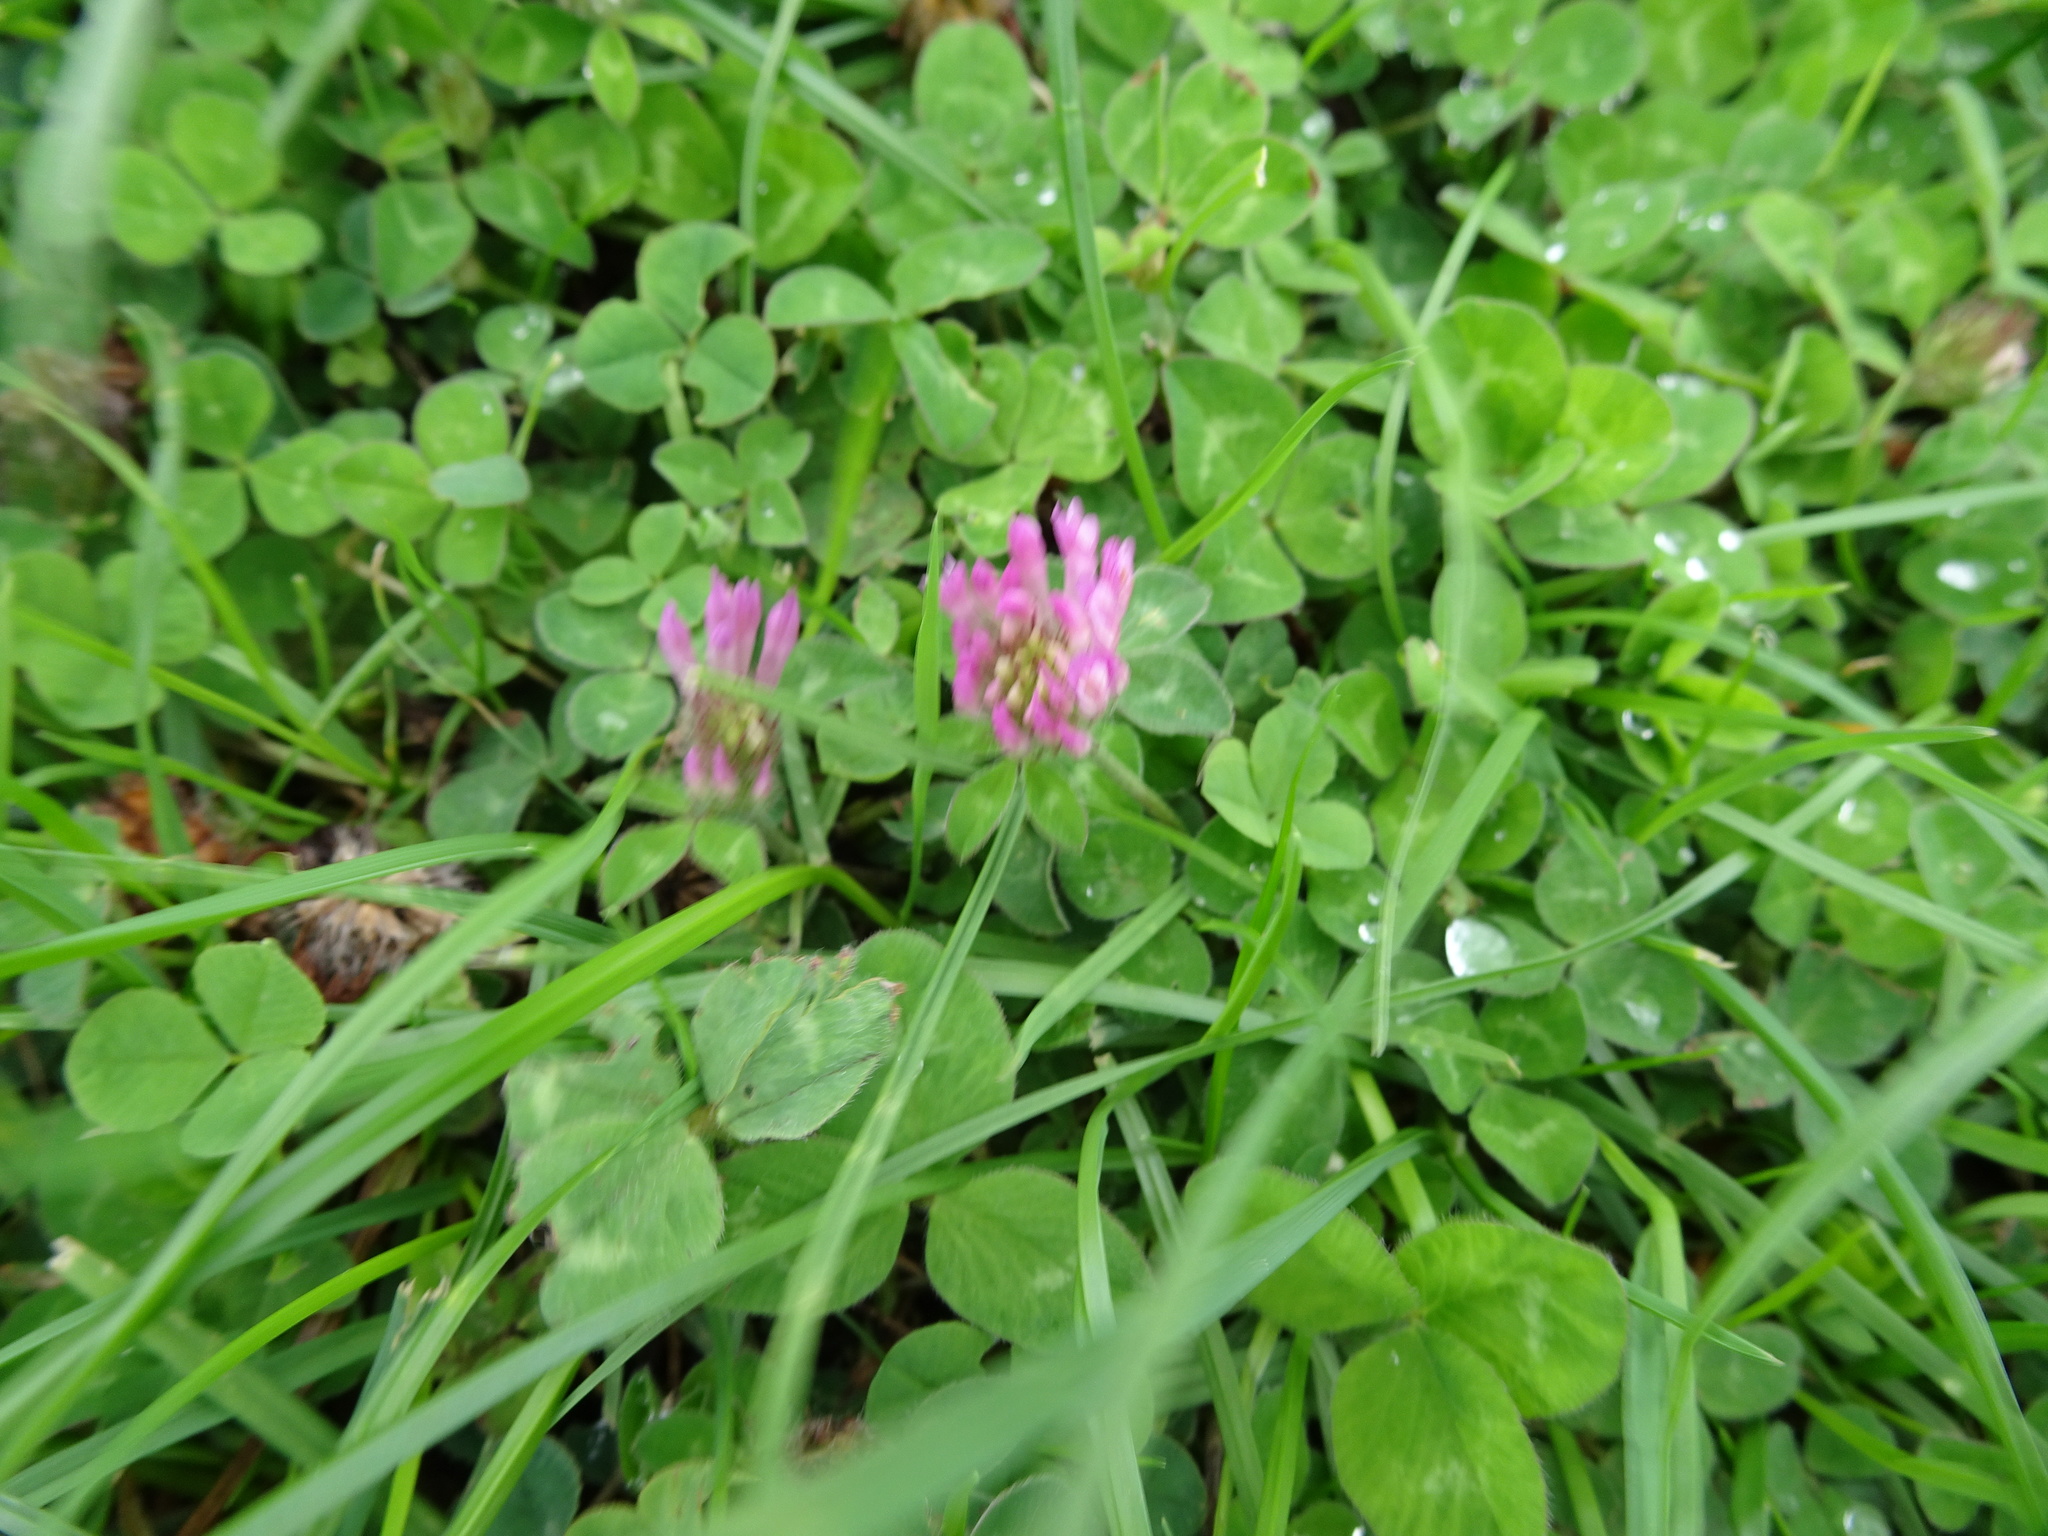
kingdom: Plantae
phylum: Tracheophyta
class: Magnoliopsida
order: Fabales
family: Fabaceae
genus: Trifolium
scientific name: Trifolium pratense
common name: Red clover
